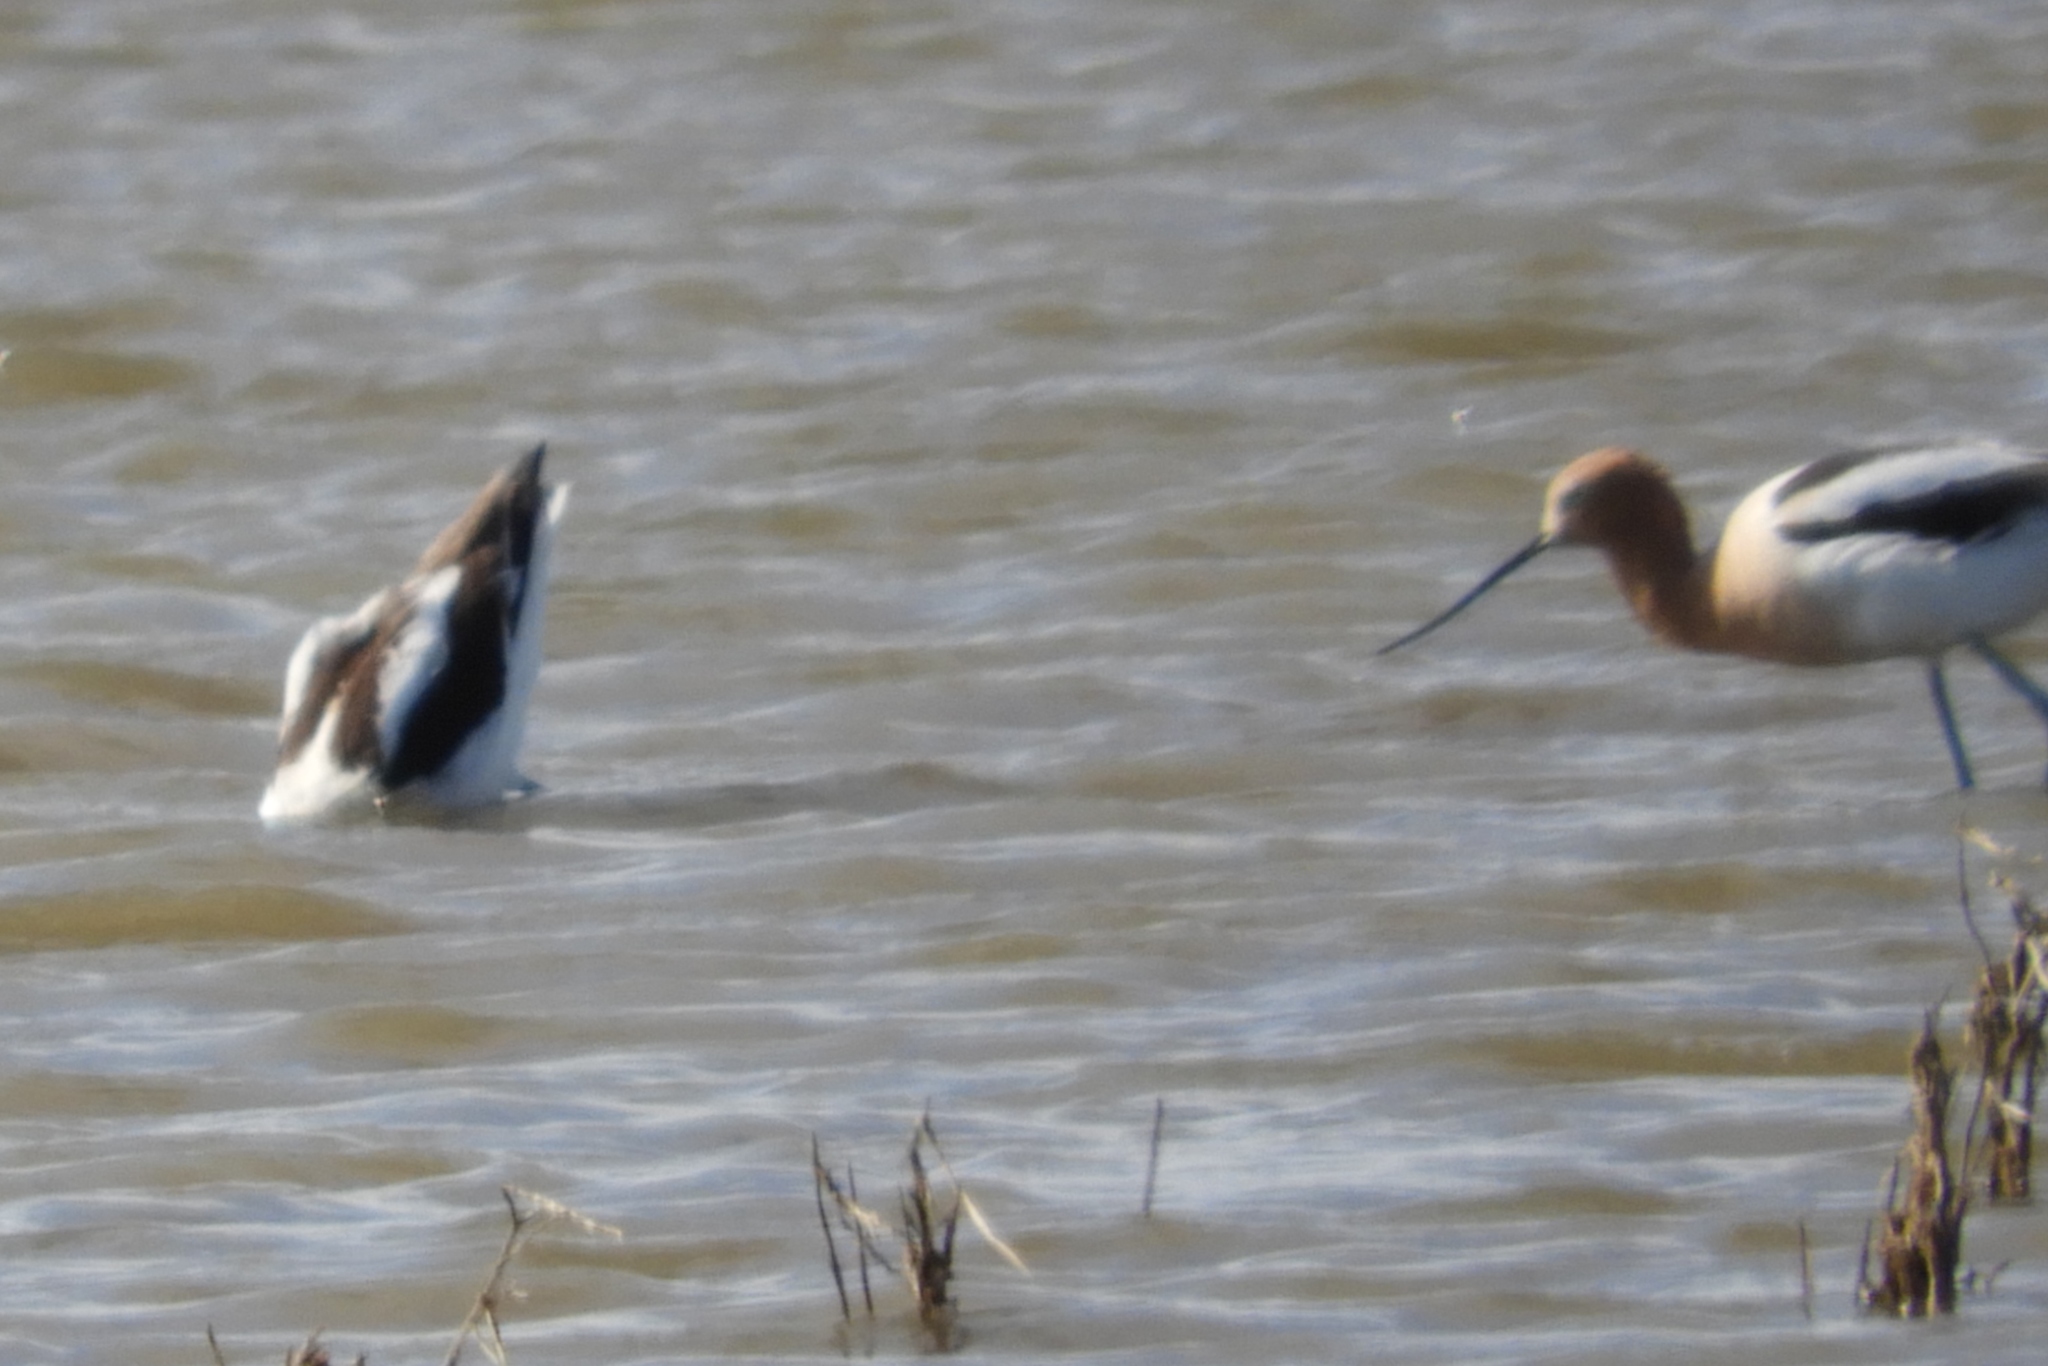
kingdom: Animalia
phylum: Chordata
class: Aves
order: Charadriiformes
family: Recurvirostridae
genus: Recurvirostra
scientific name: Recurvirostra americana
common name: American avocet
